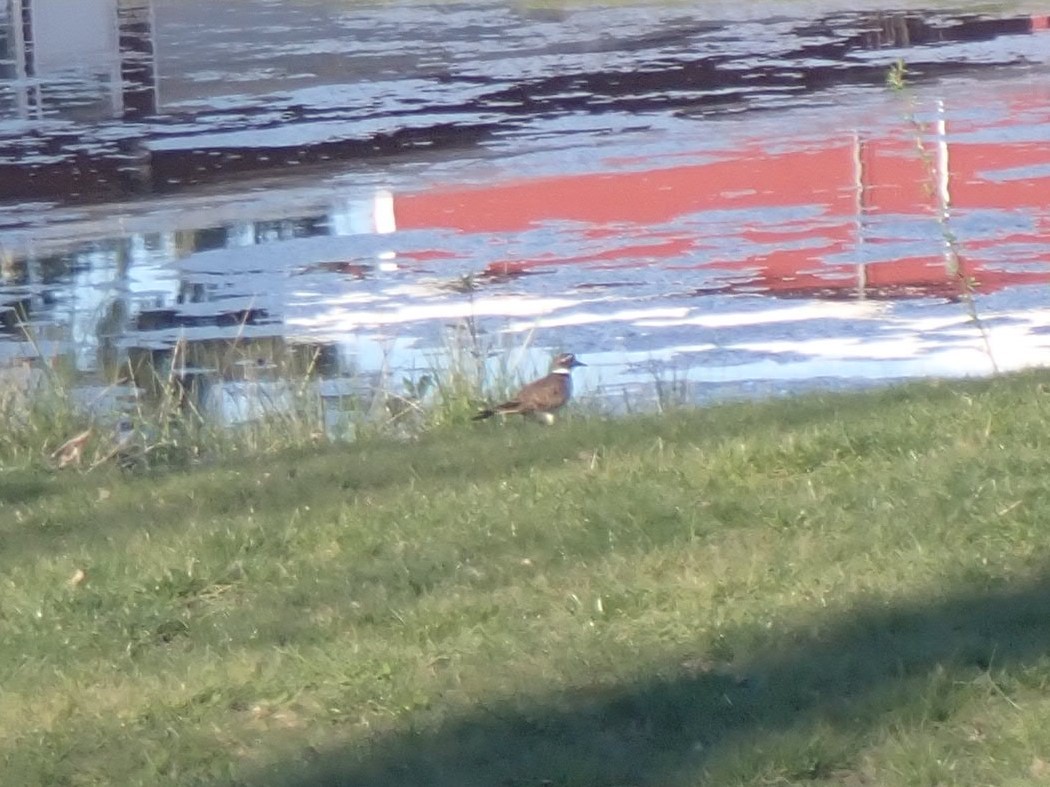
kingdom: Animalia
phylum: Chordata
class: Aves
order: Charadriiformes
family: Charadriidae
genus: Charadrius
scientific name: Charadrius vociferus
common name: Killdeer
